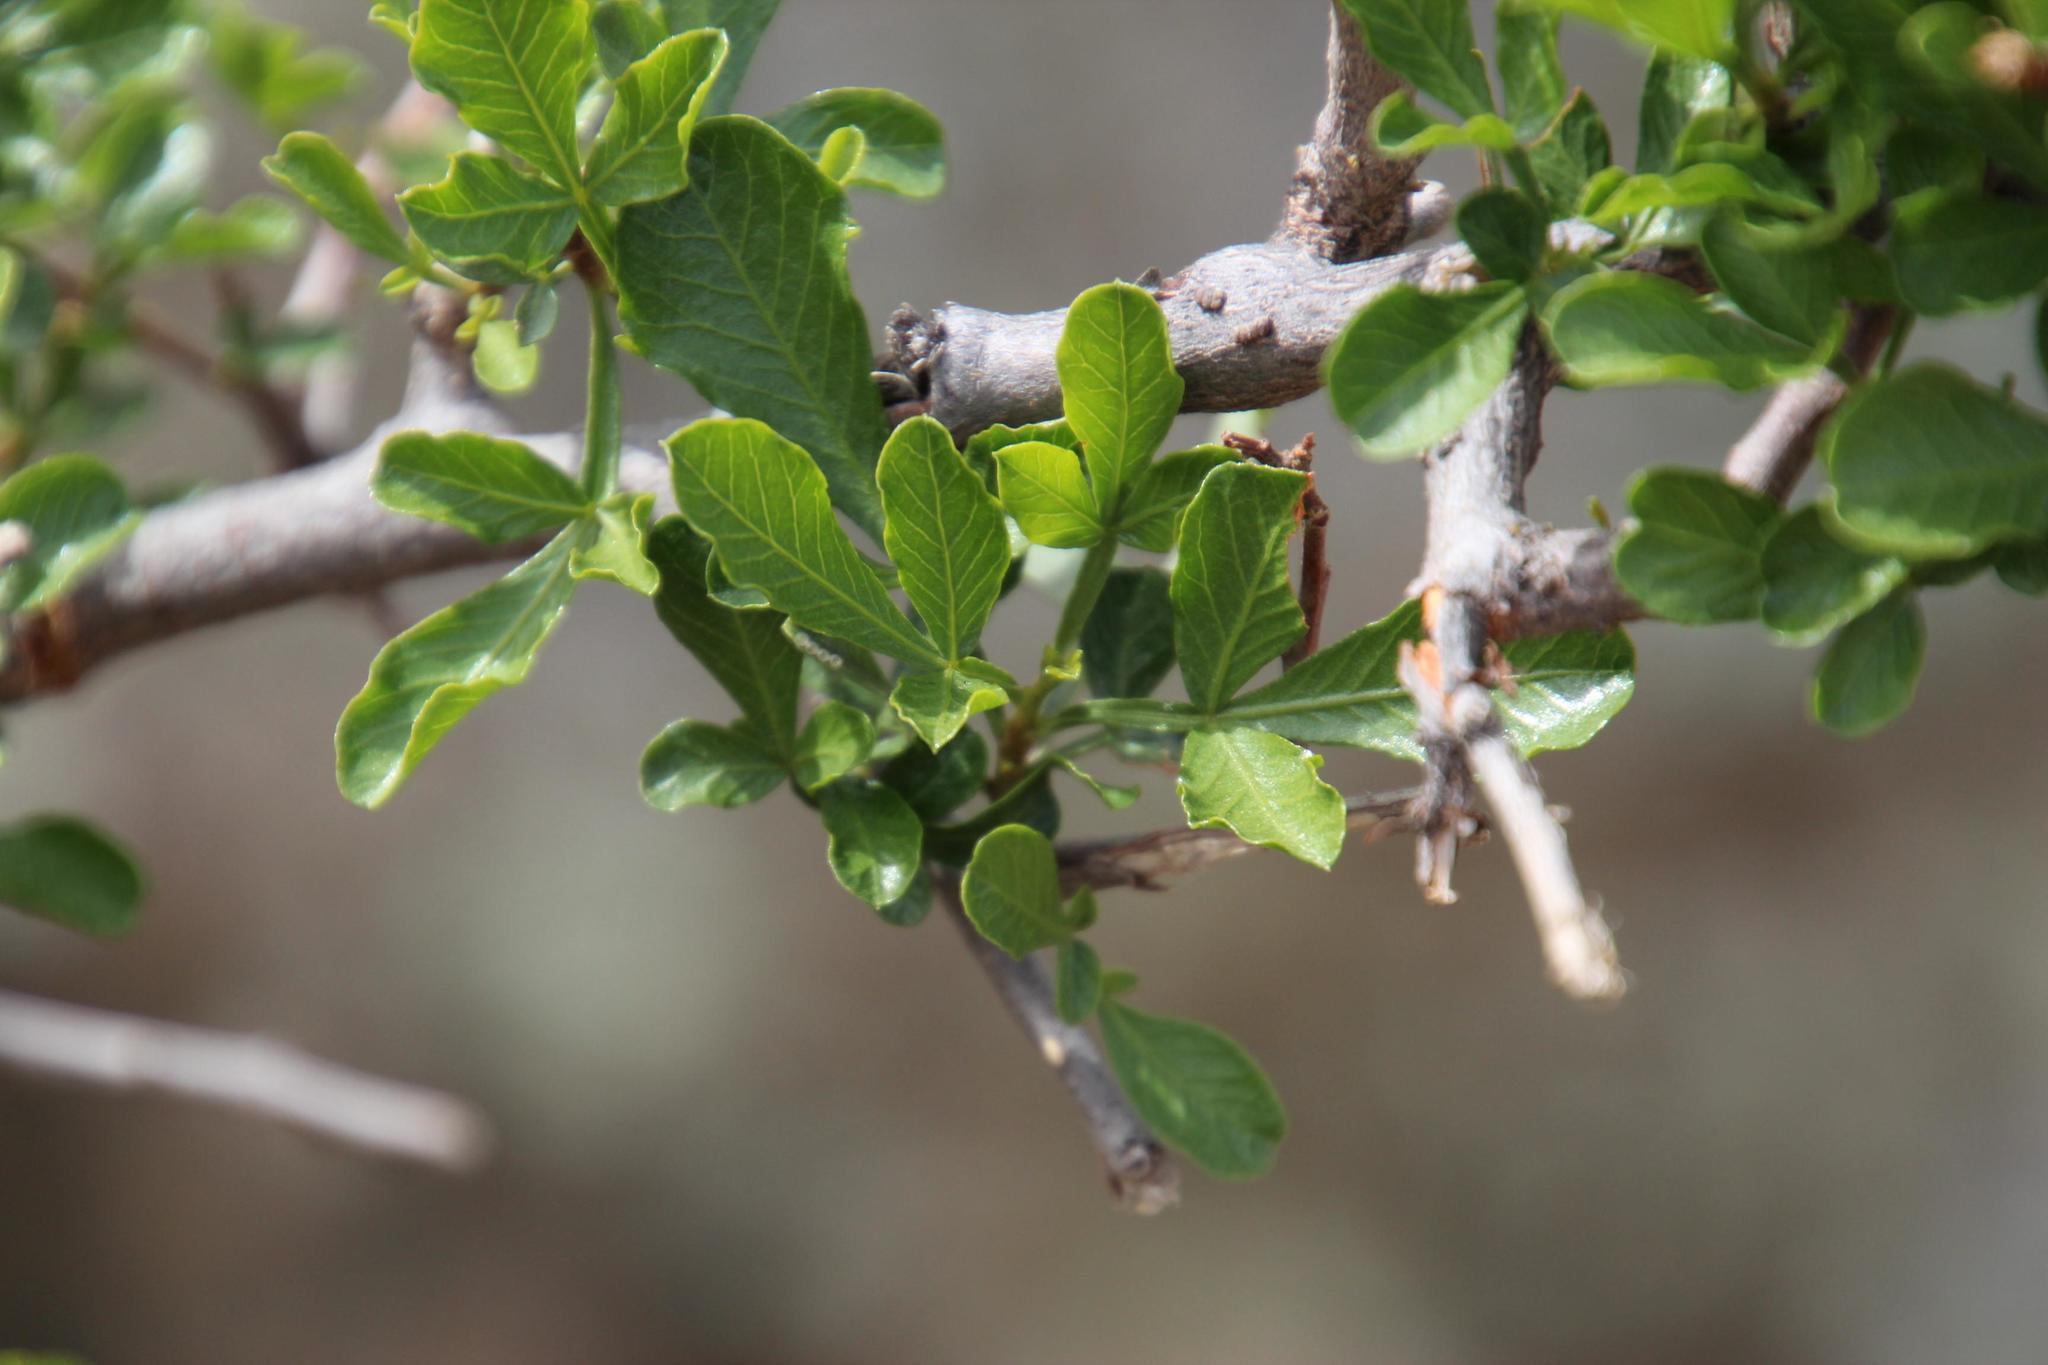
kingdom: Plantae
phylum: Tracheophyta
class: Magnoliopsida
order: Sapindales
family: Anacardiaceae
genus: Searsia
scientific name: Searsia undulata
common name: Namaqua kunibush
